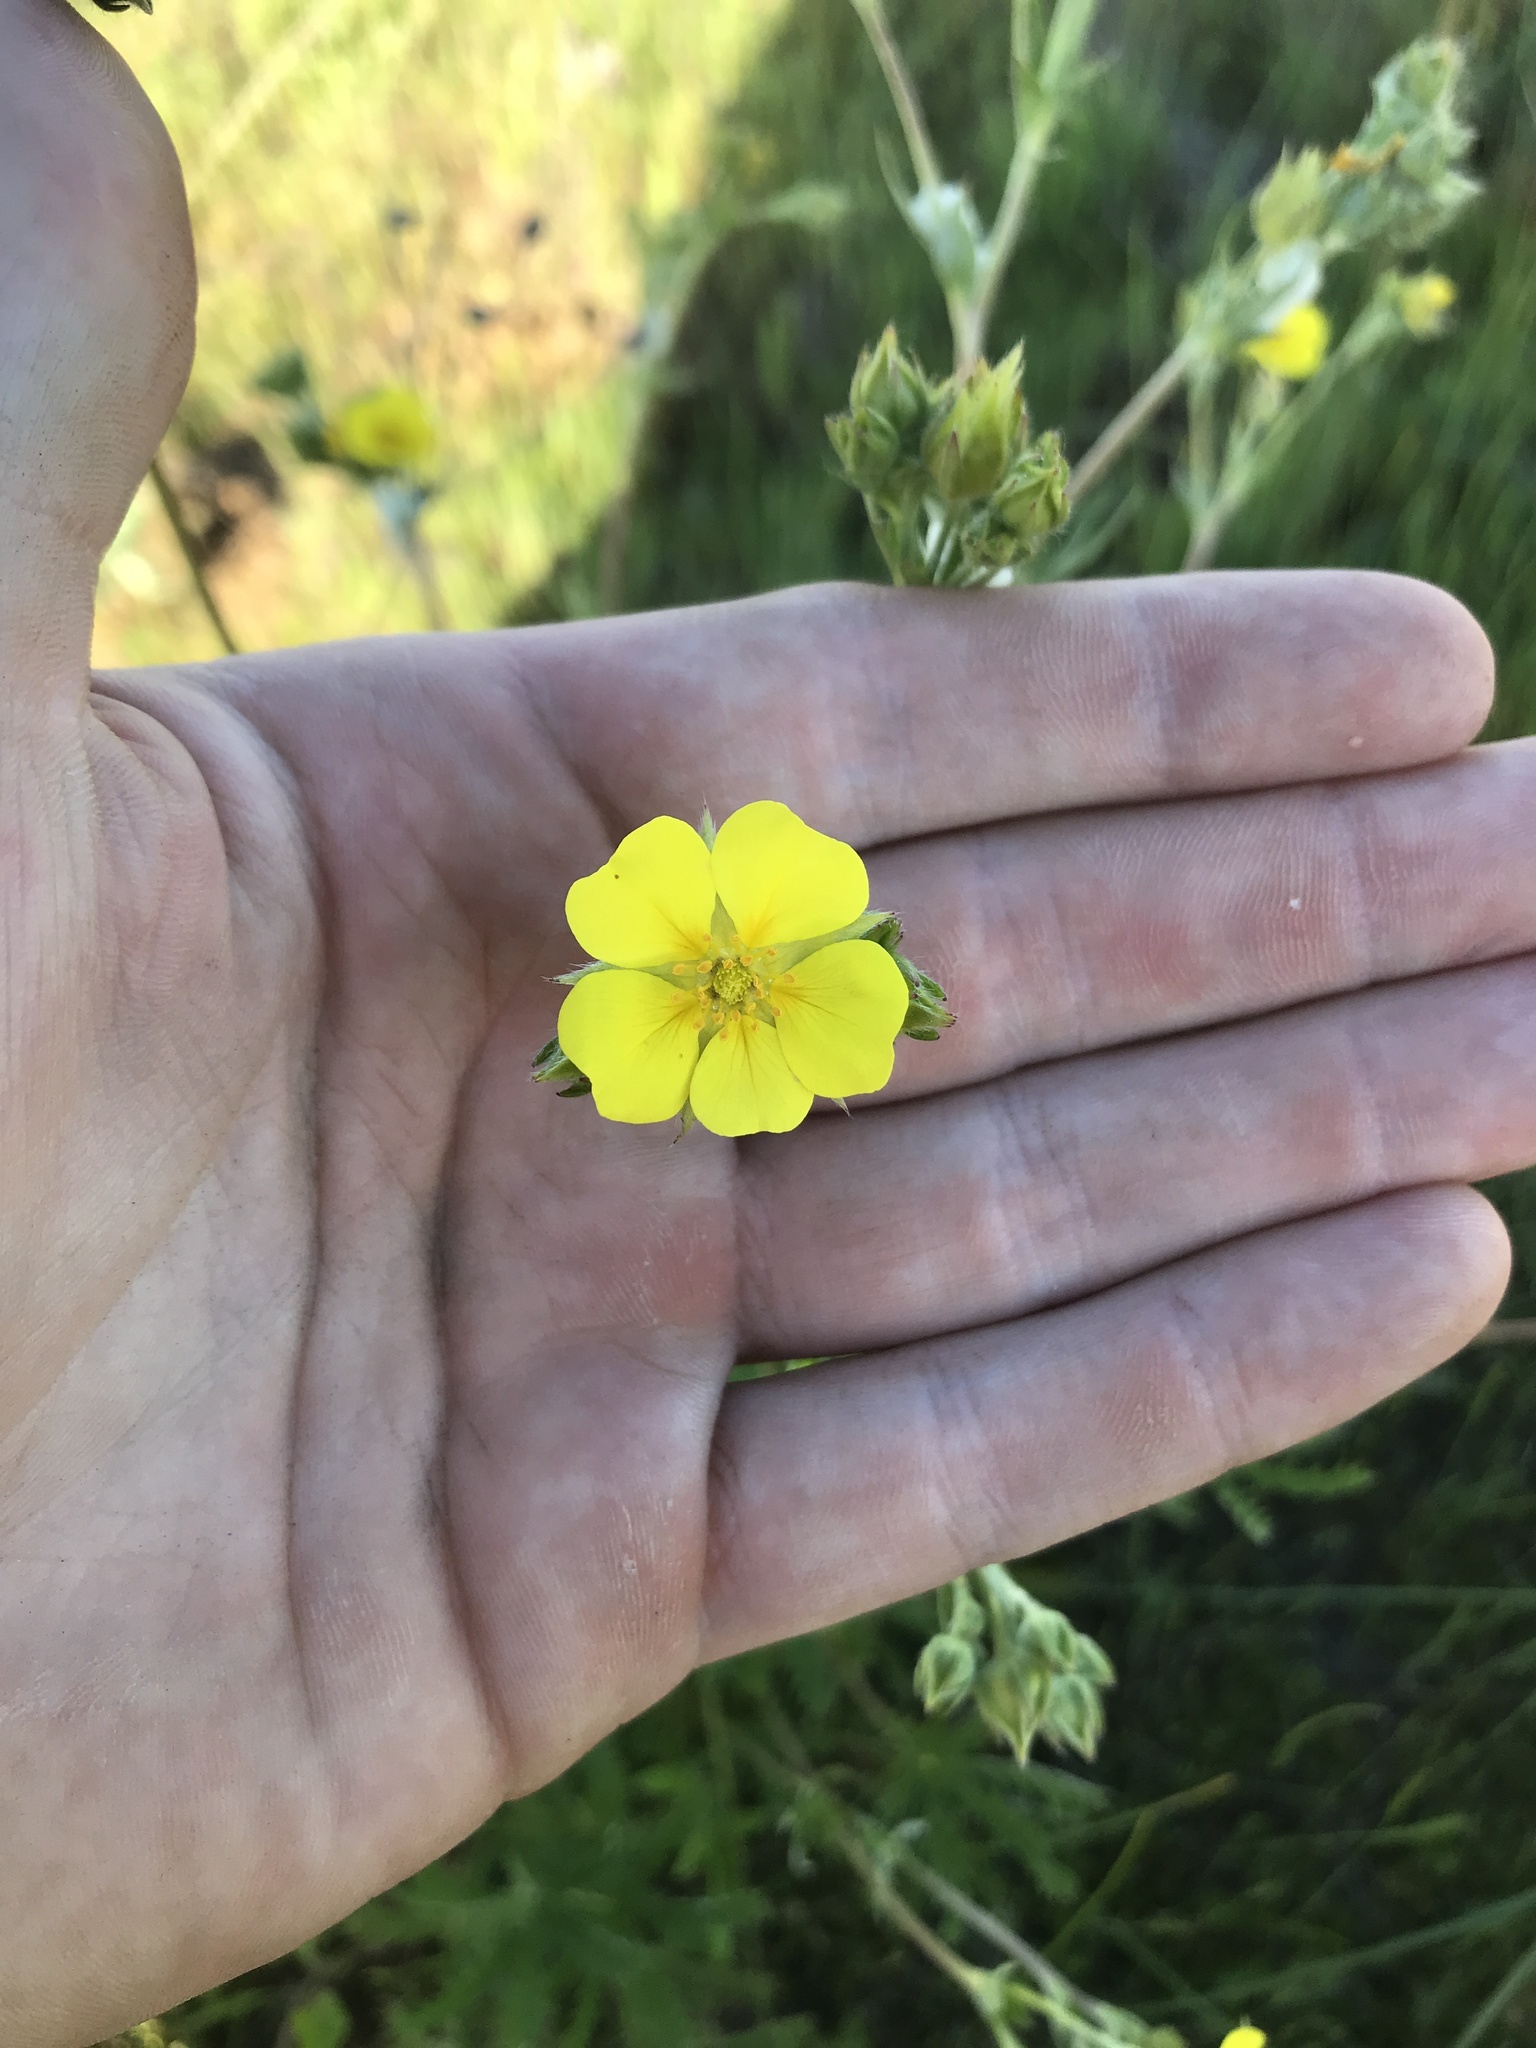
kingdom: Plantae
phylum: Tracheophyta
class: Magnoliopsida
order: Rosales
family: Rosaceae
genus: Potentilla
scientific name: Potentilla gracilis
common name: Graceful cinquefoil
